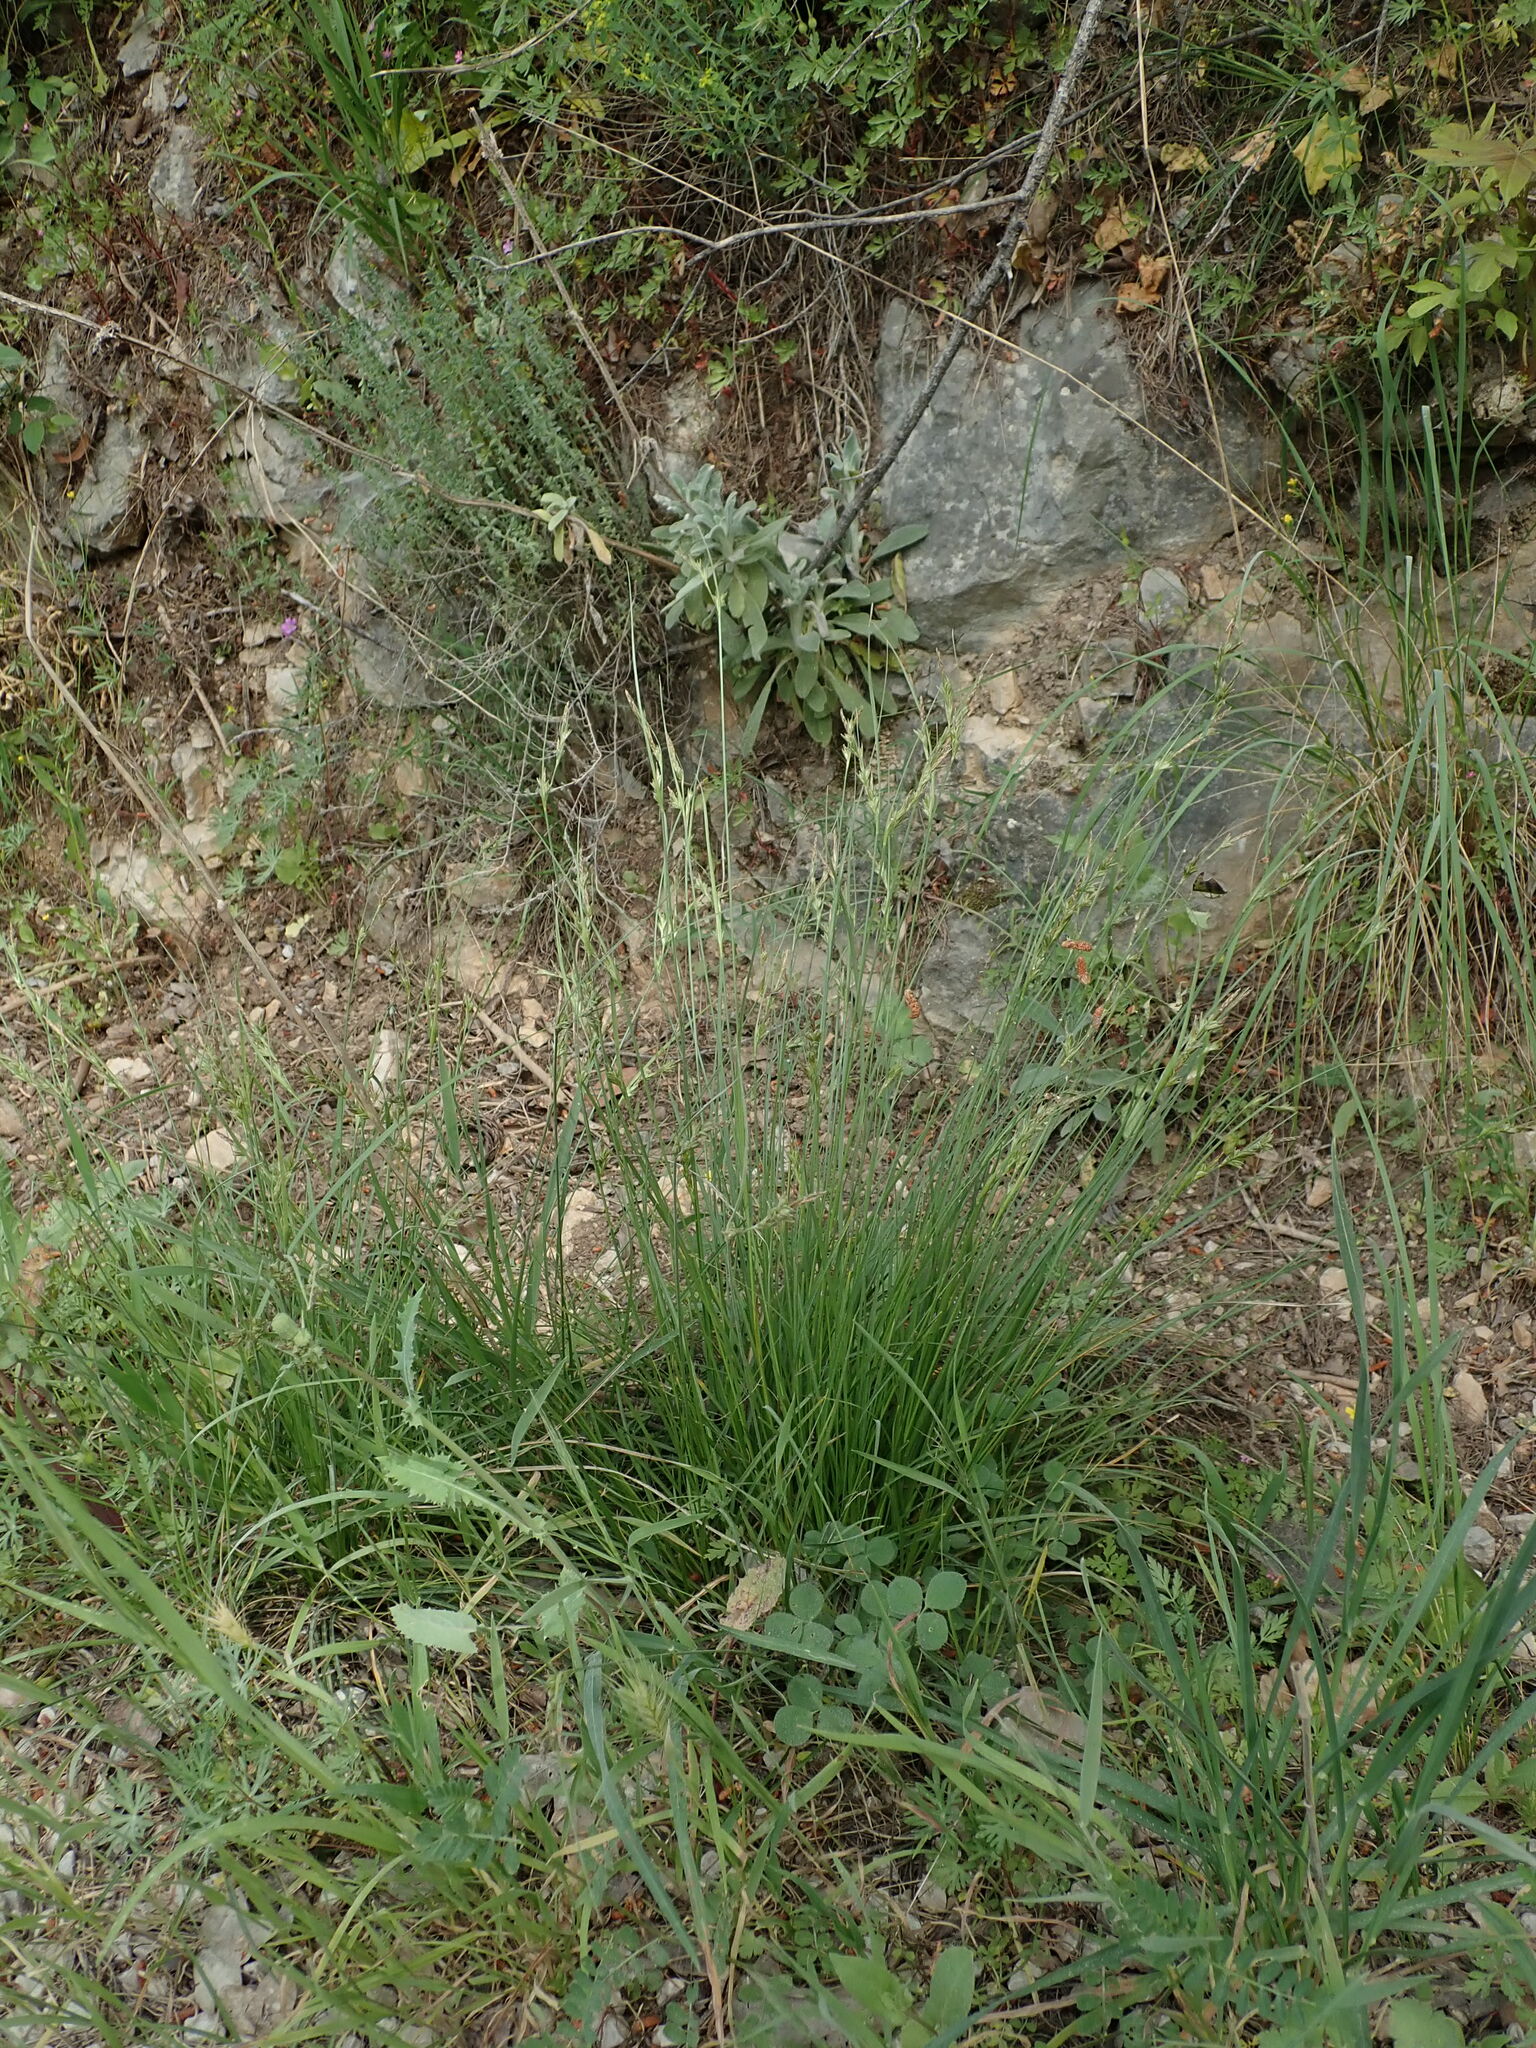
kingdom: Plantae
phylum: Tracheophyta
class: Liliopsida
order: Poales
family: Cyperaceae
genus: Carex
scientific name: Carex distachya
